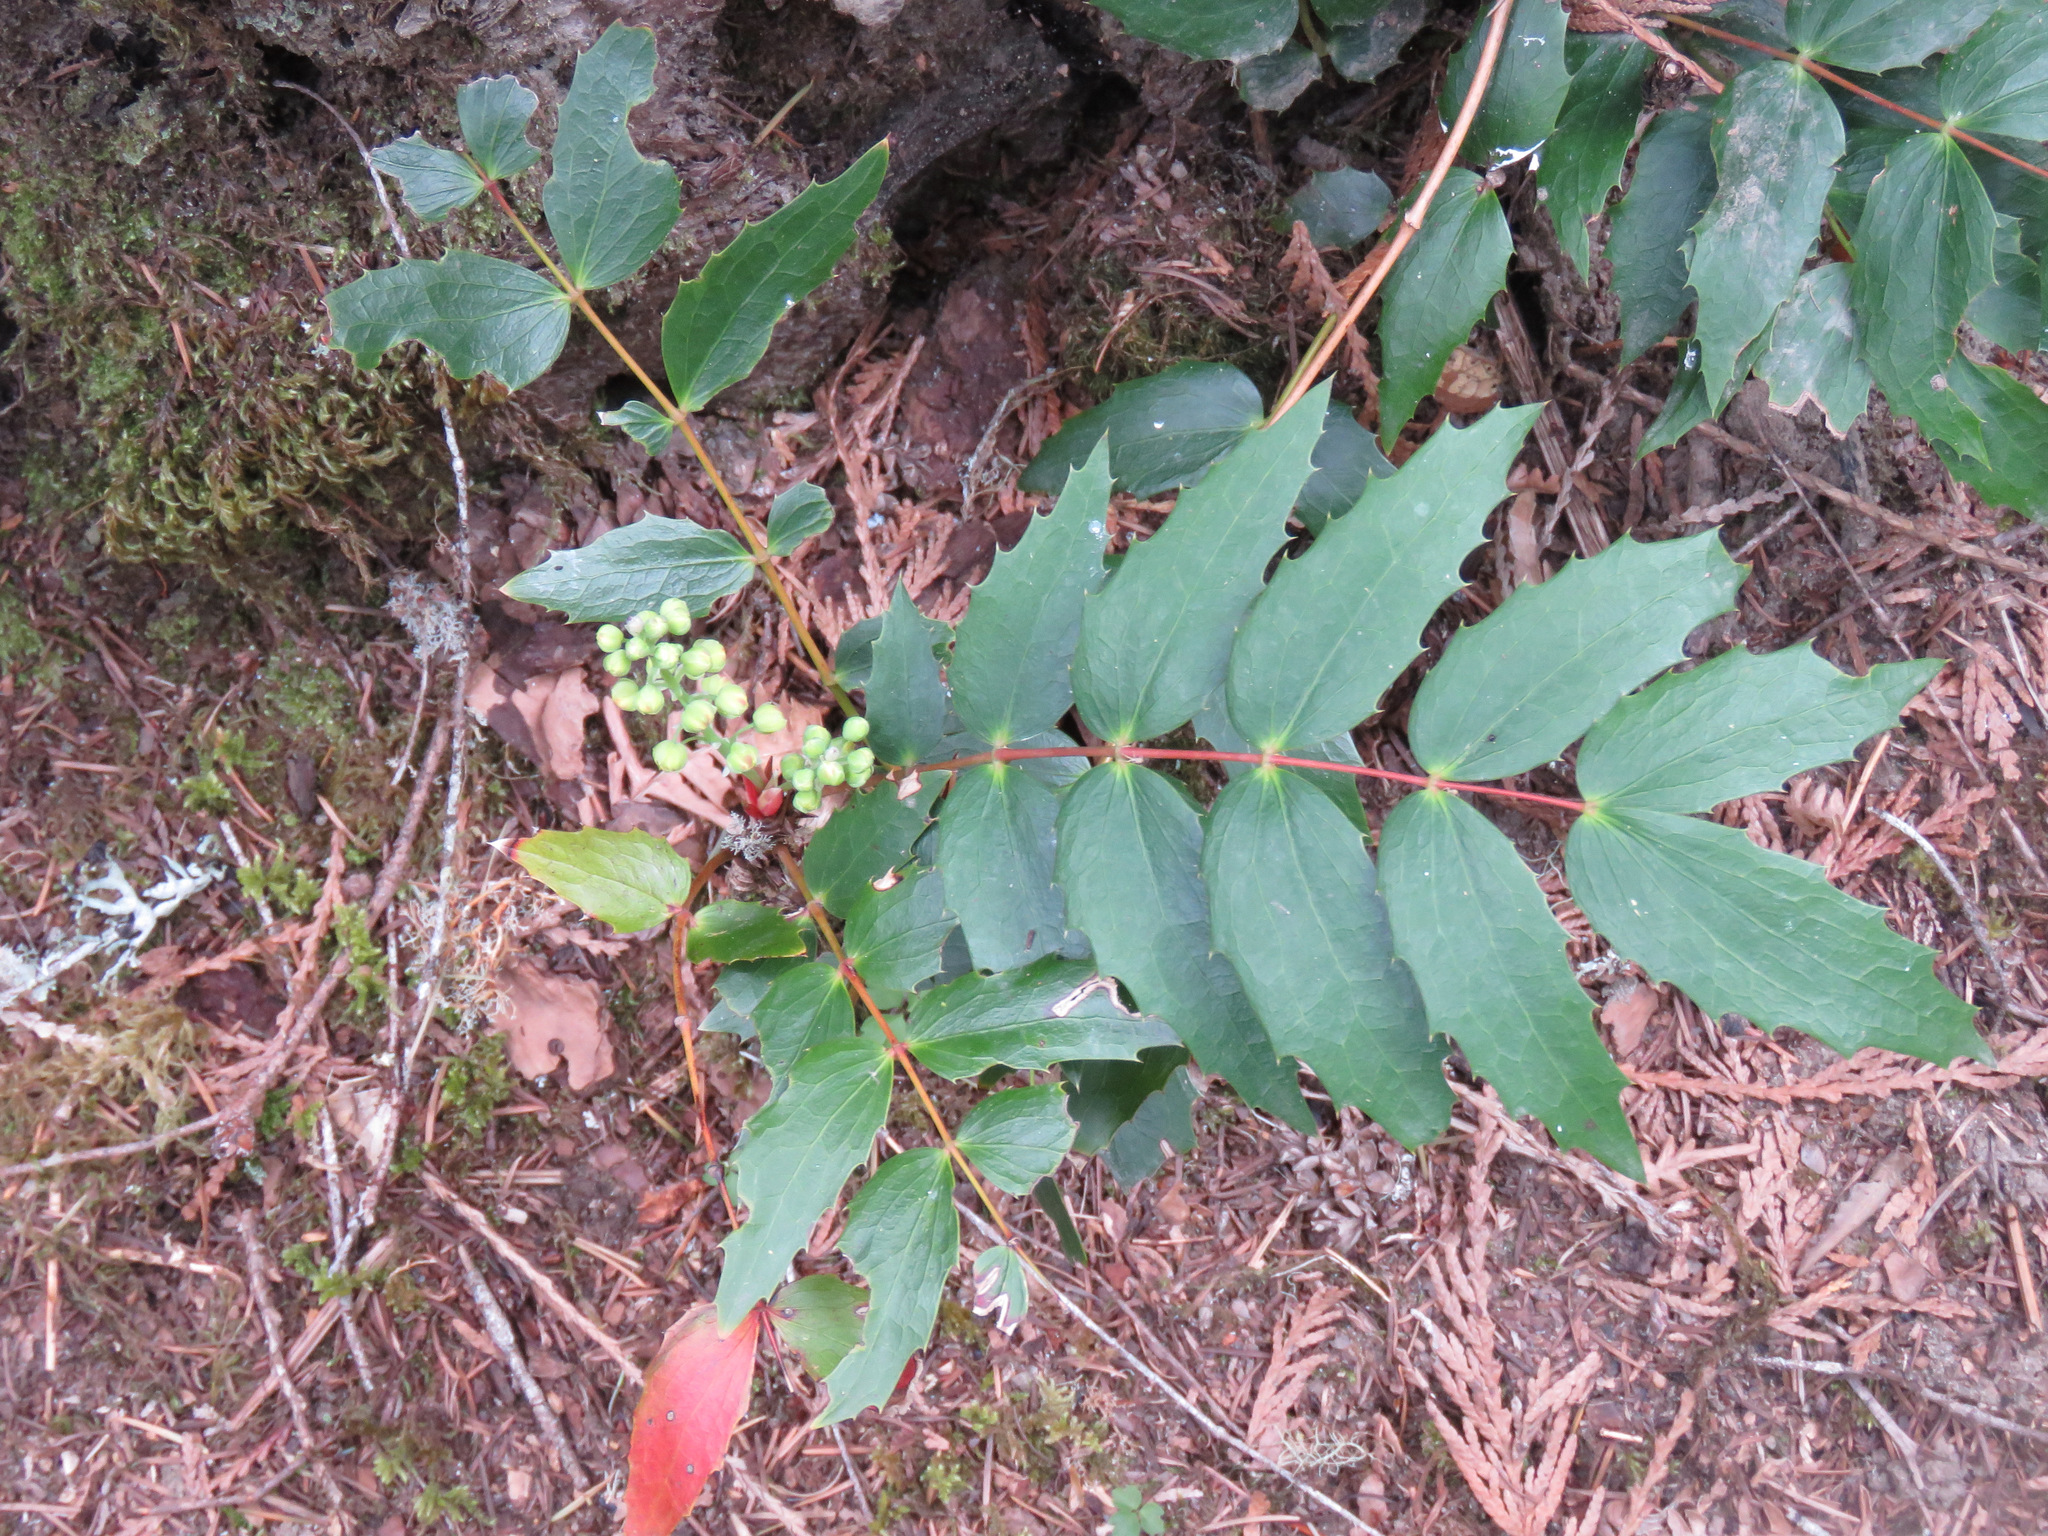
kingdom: Plantae
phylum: Tracheophyta
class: Magnoliopsida
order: Ranunculales
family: Berberidaceae
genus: Mahonia
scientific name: Mahonia nervosa
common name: Cascade oregon-grape
